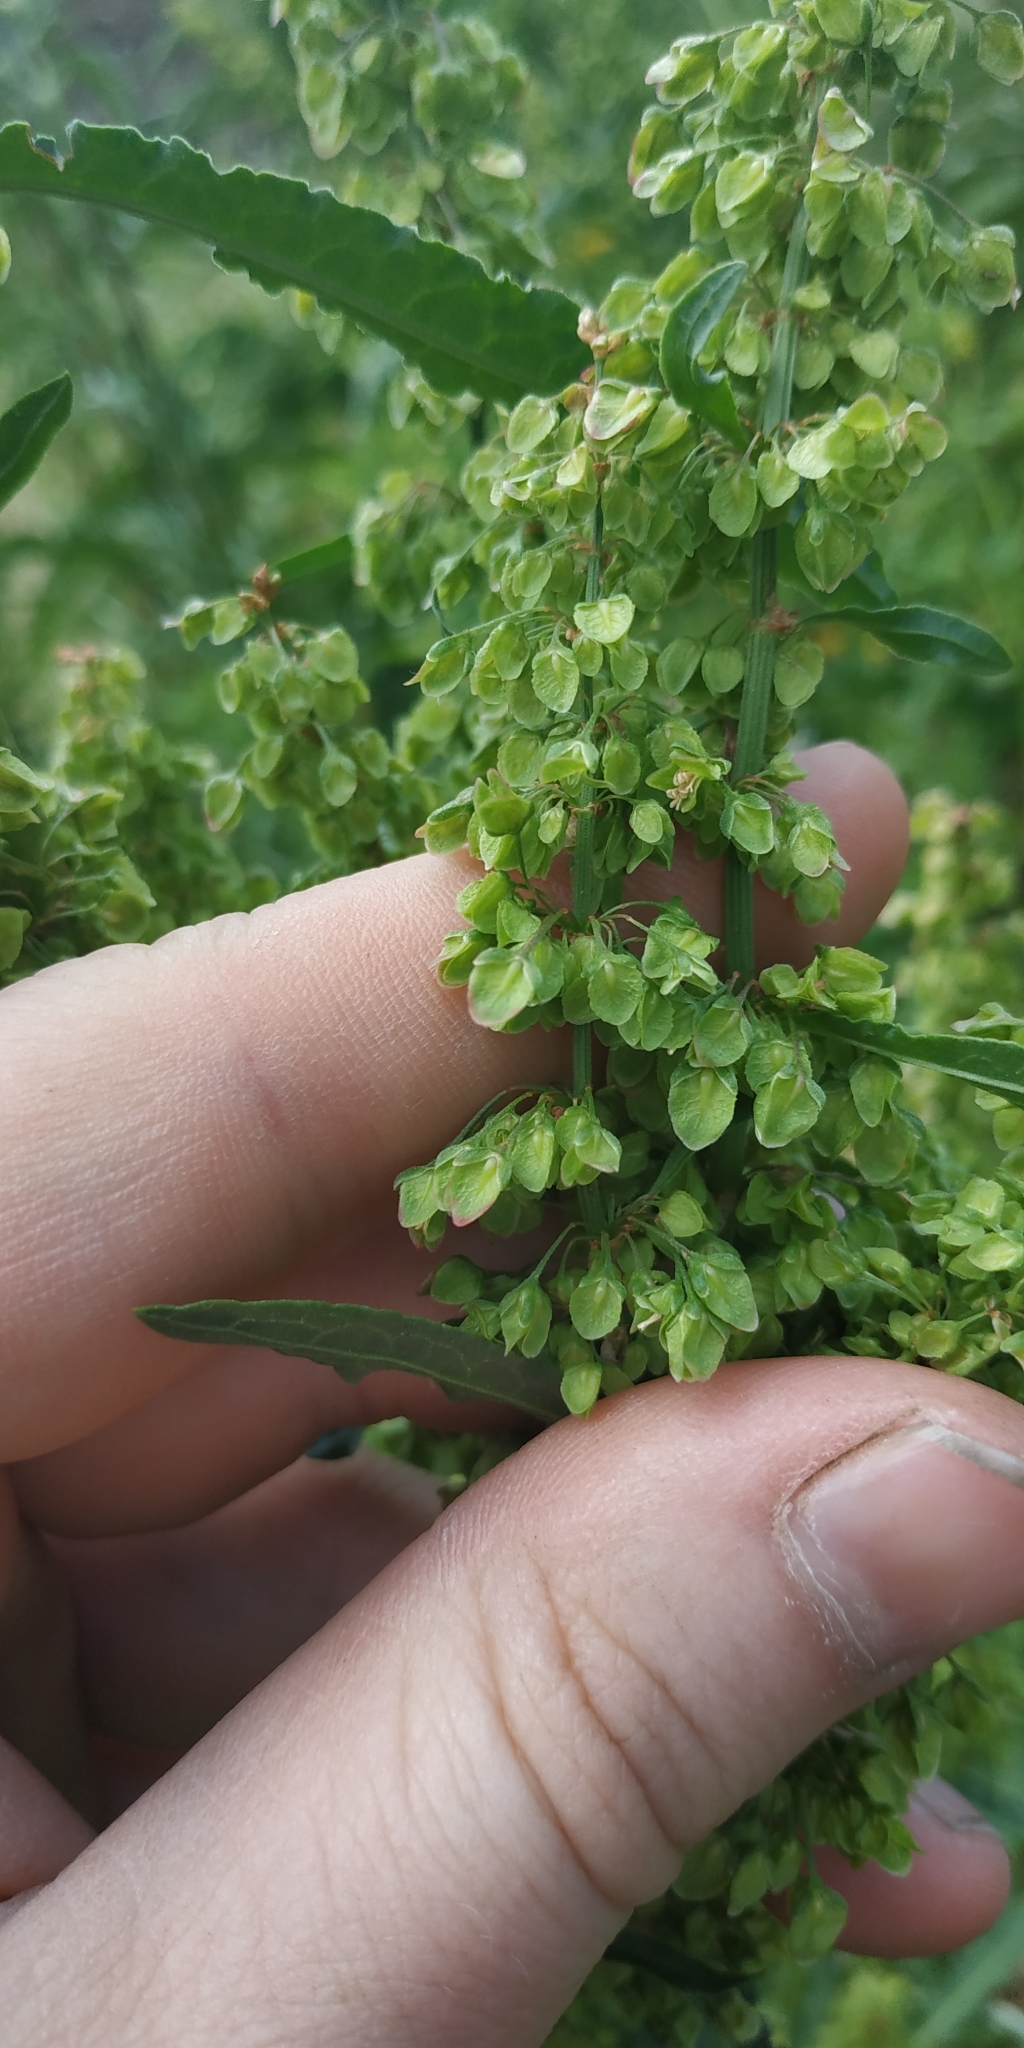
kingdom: Plantae
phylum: Tracheophyta
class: Magnoliopsida
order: Caryophyllales
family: Polygonaceae
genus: Rumex
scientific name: Rumex crispus
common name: Curled dock
